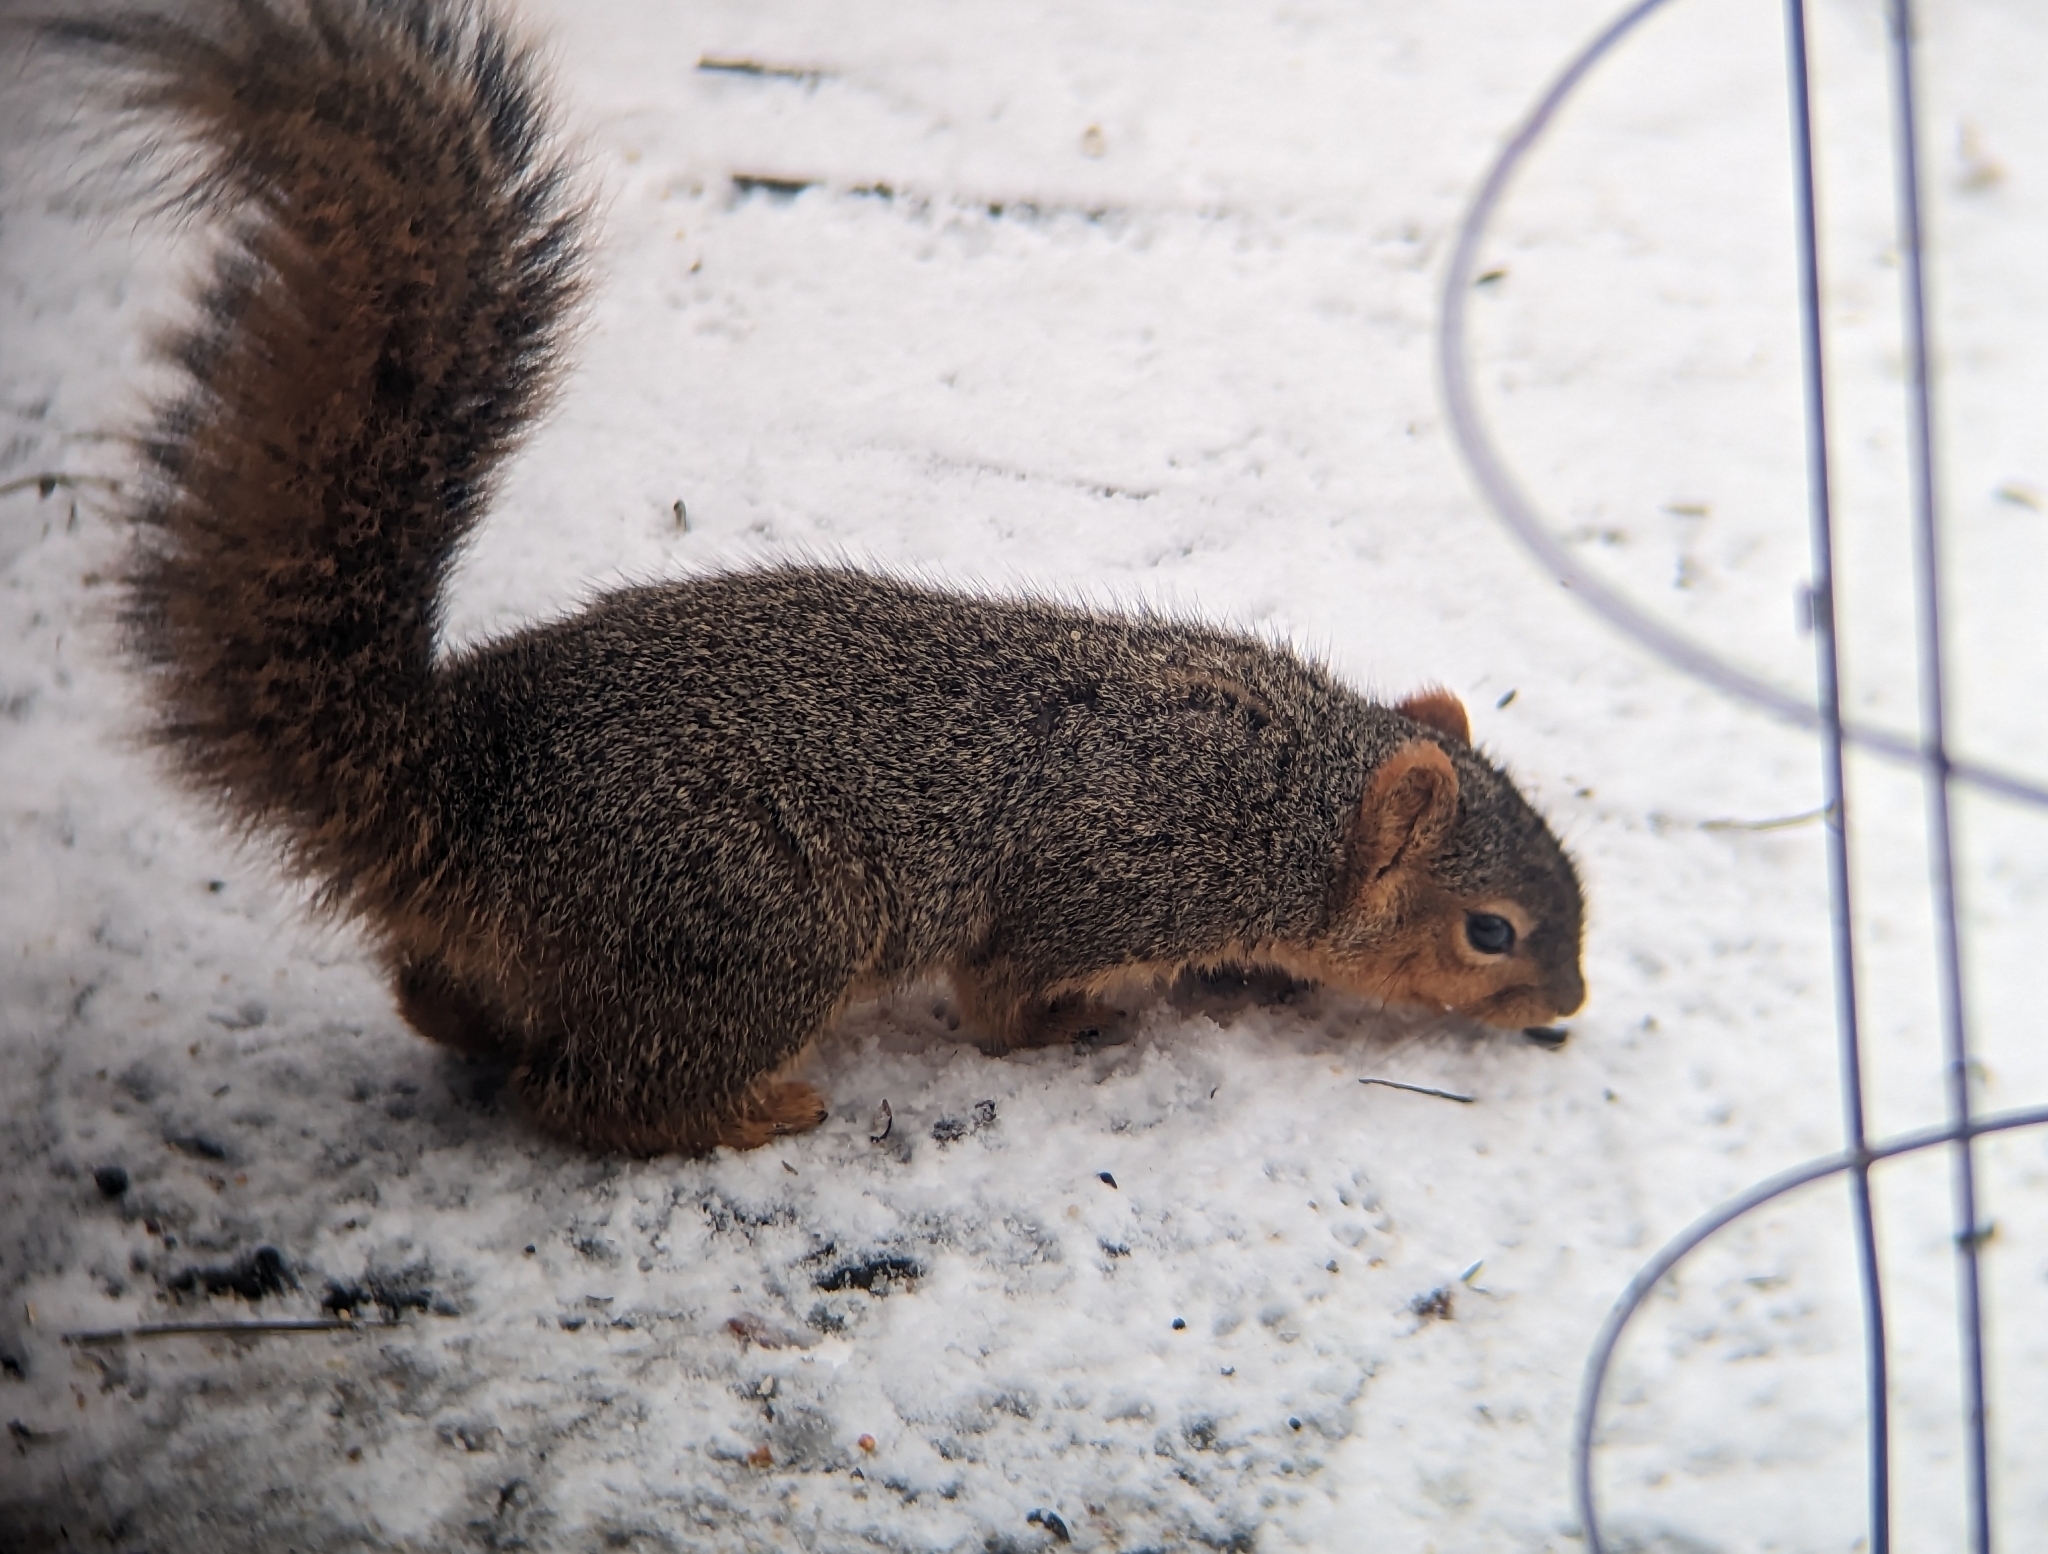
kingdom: Animalia
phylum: Chordata
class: Mammalia
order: Rodentia
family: Sciuridae
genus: Sciurus
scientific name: Sciurus niger
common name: Fox squirrel
